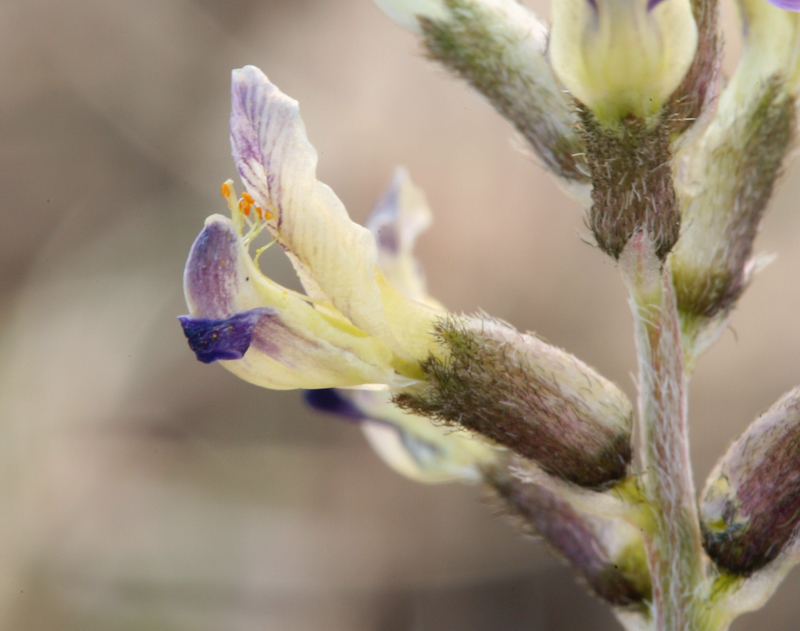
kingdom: Plantae
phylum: Tracheophyta
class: Magnoliopsida
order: Fabales
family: Fabaceae
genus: Astragalus
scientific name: Astragalus layneae
